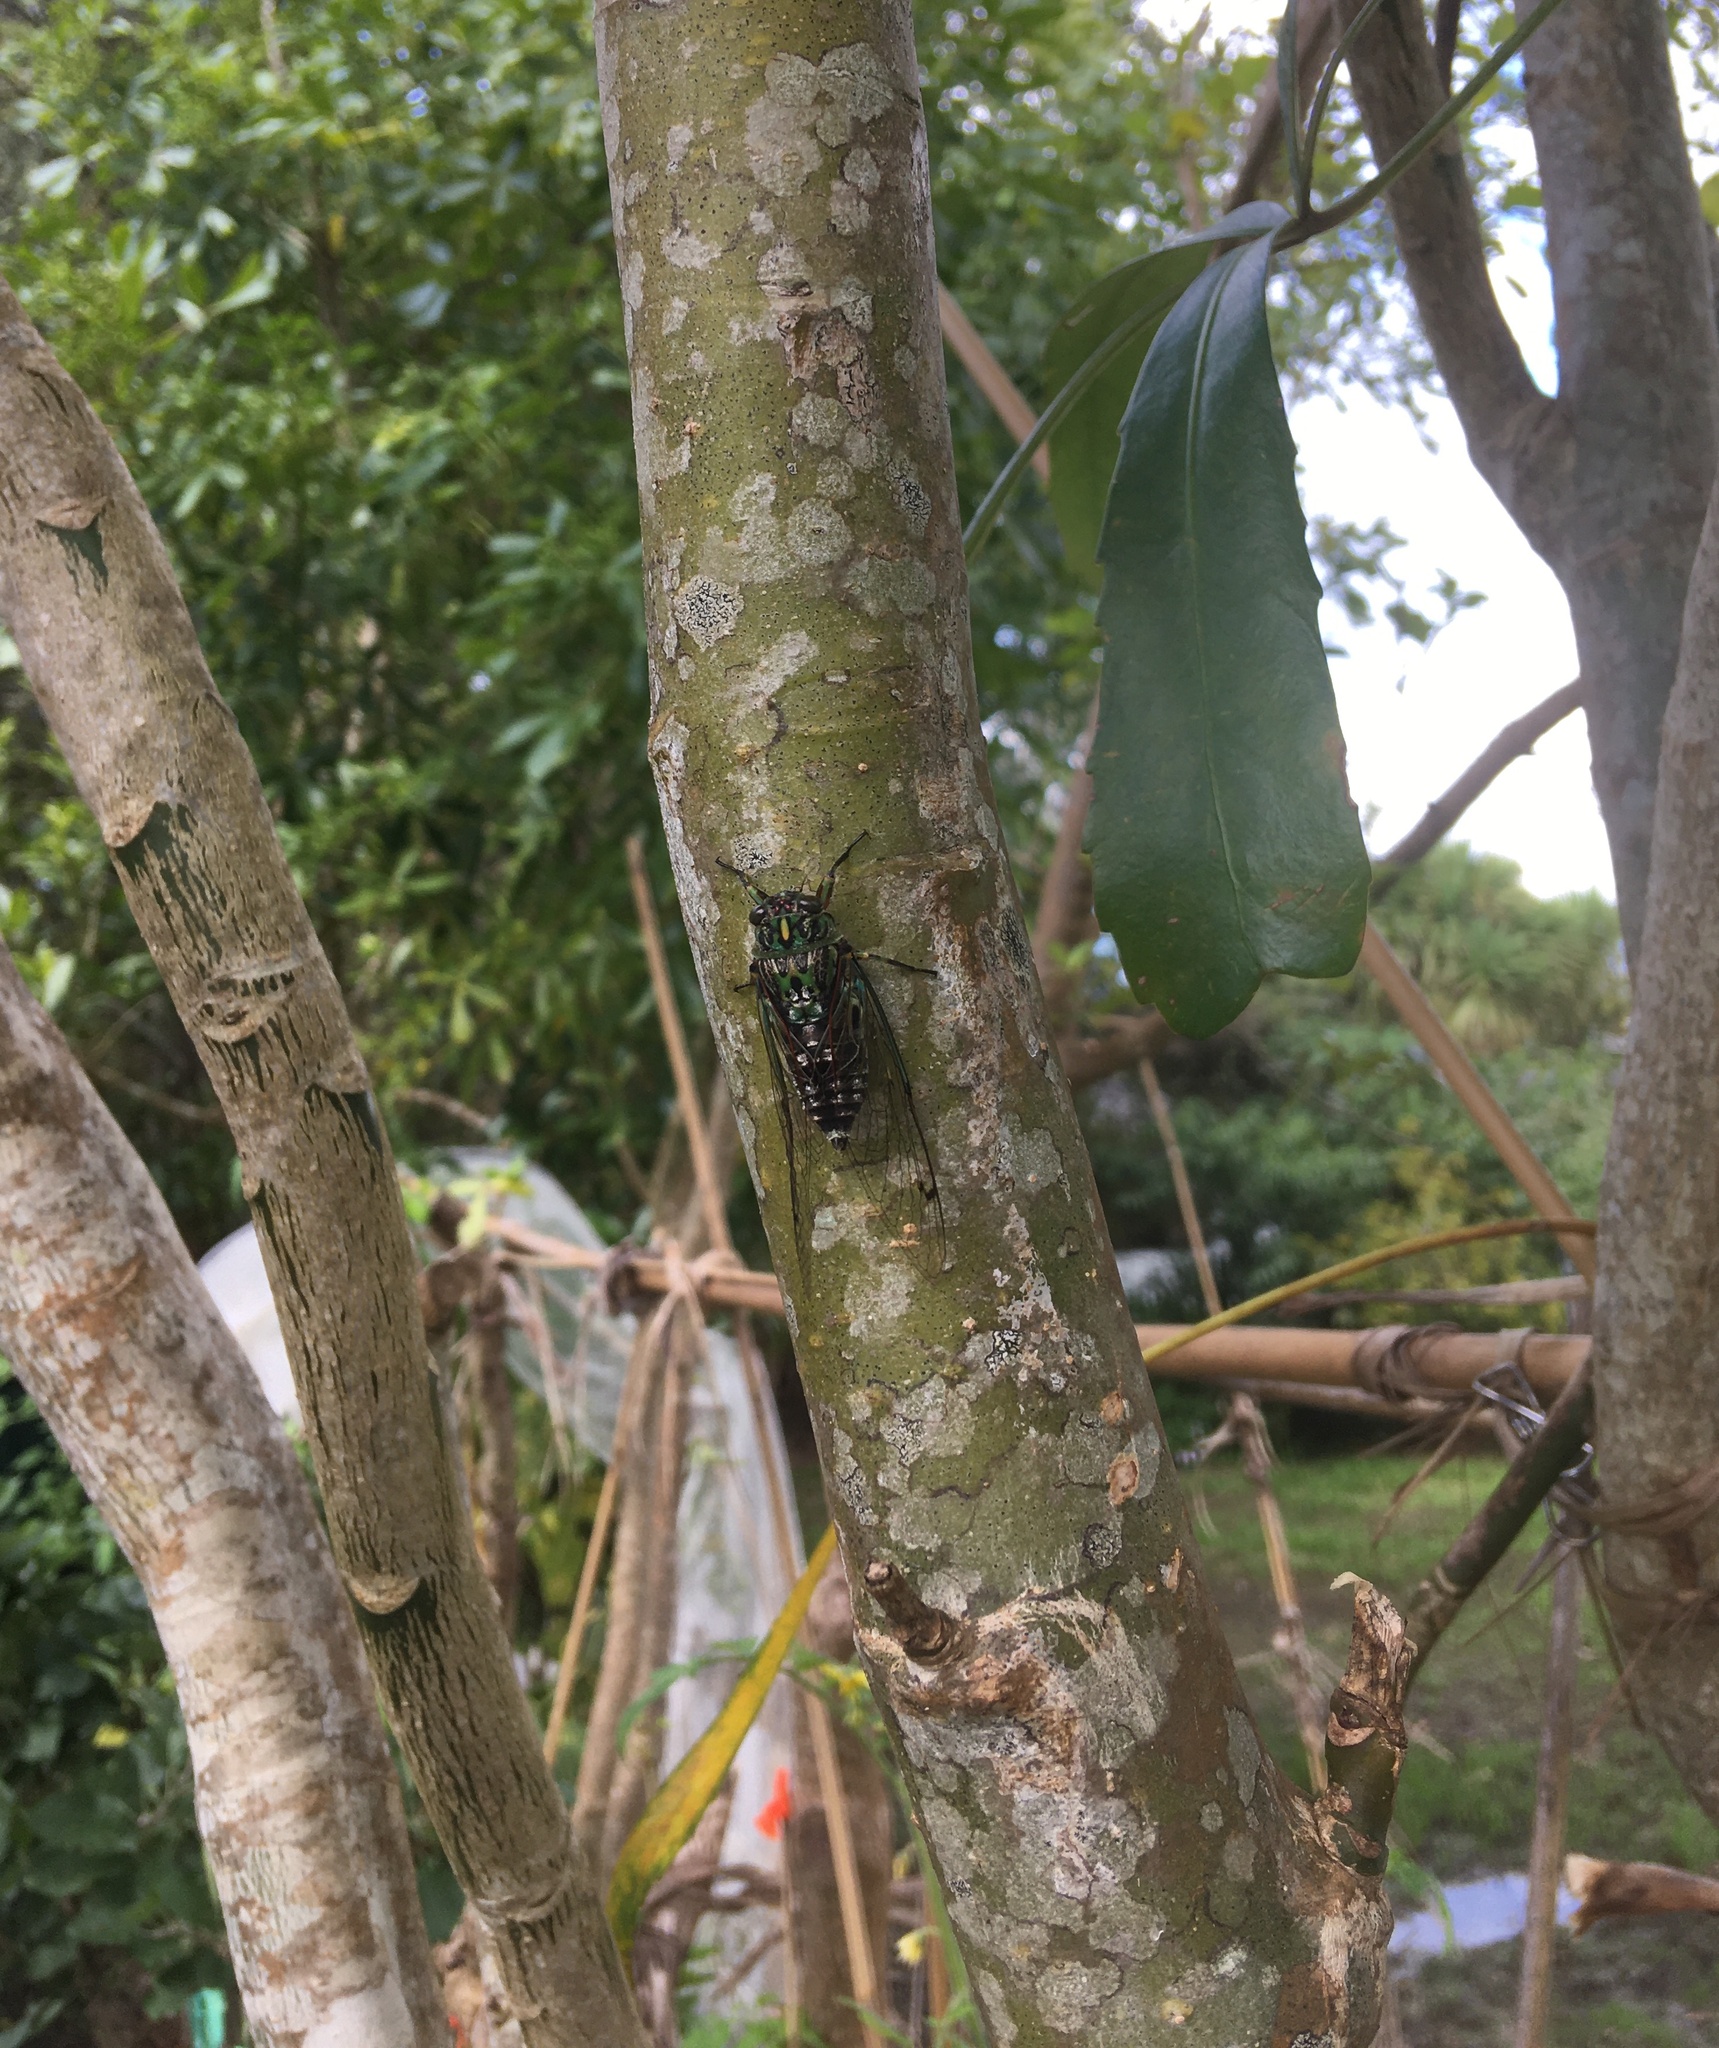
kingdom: Animalia
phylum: Arthropoda
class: Insecta
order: Hemiptera
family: Cicadidae
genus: Amphipsalta
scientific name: Amphipsalta zelandica
